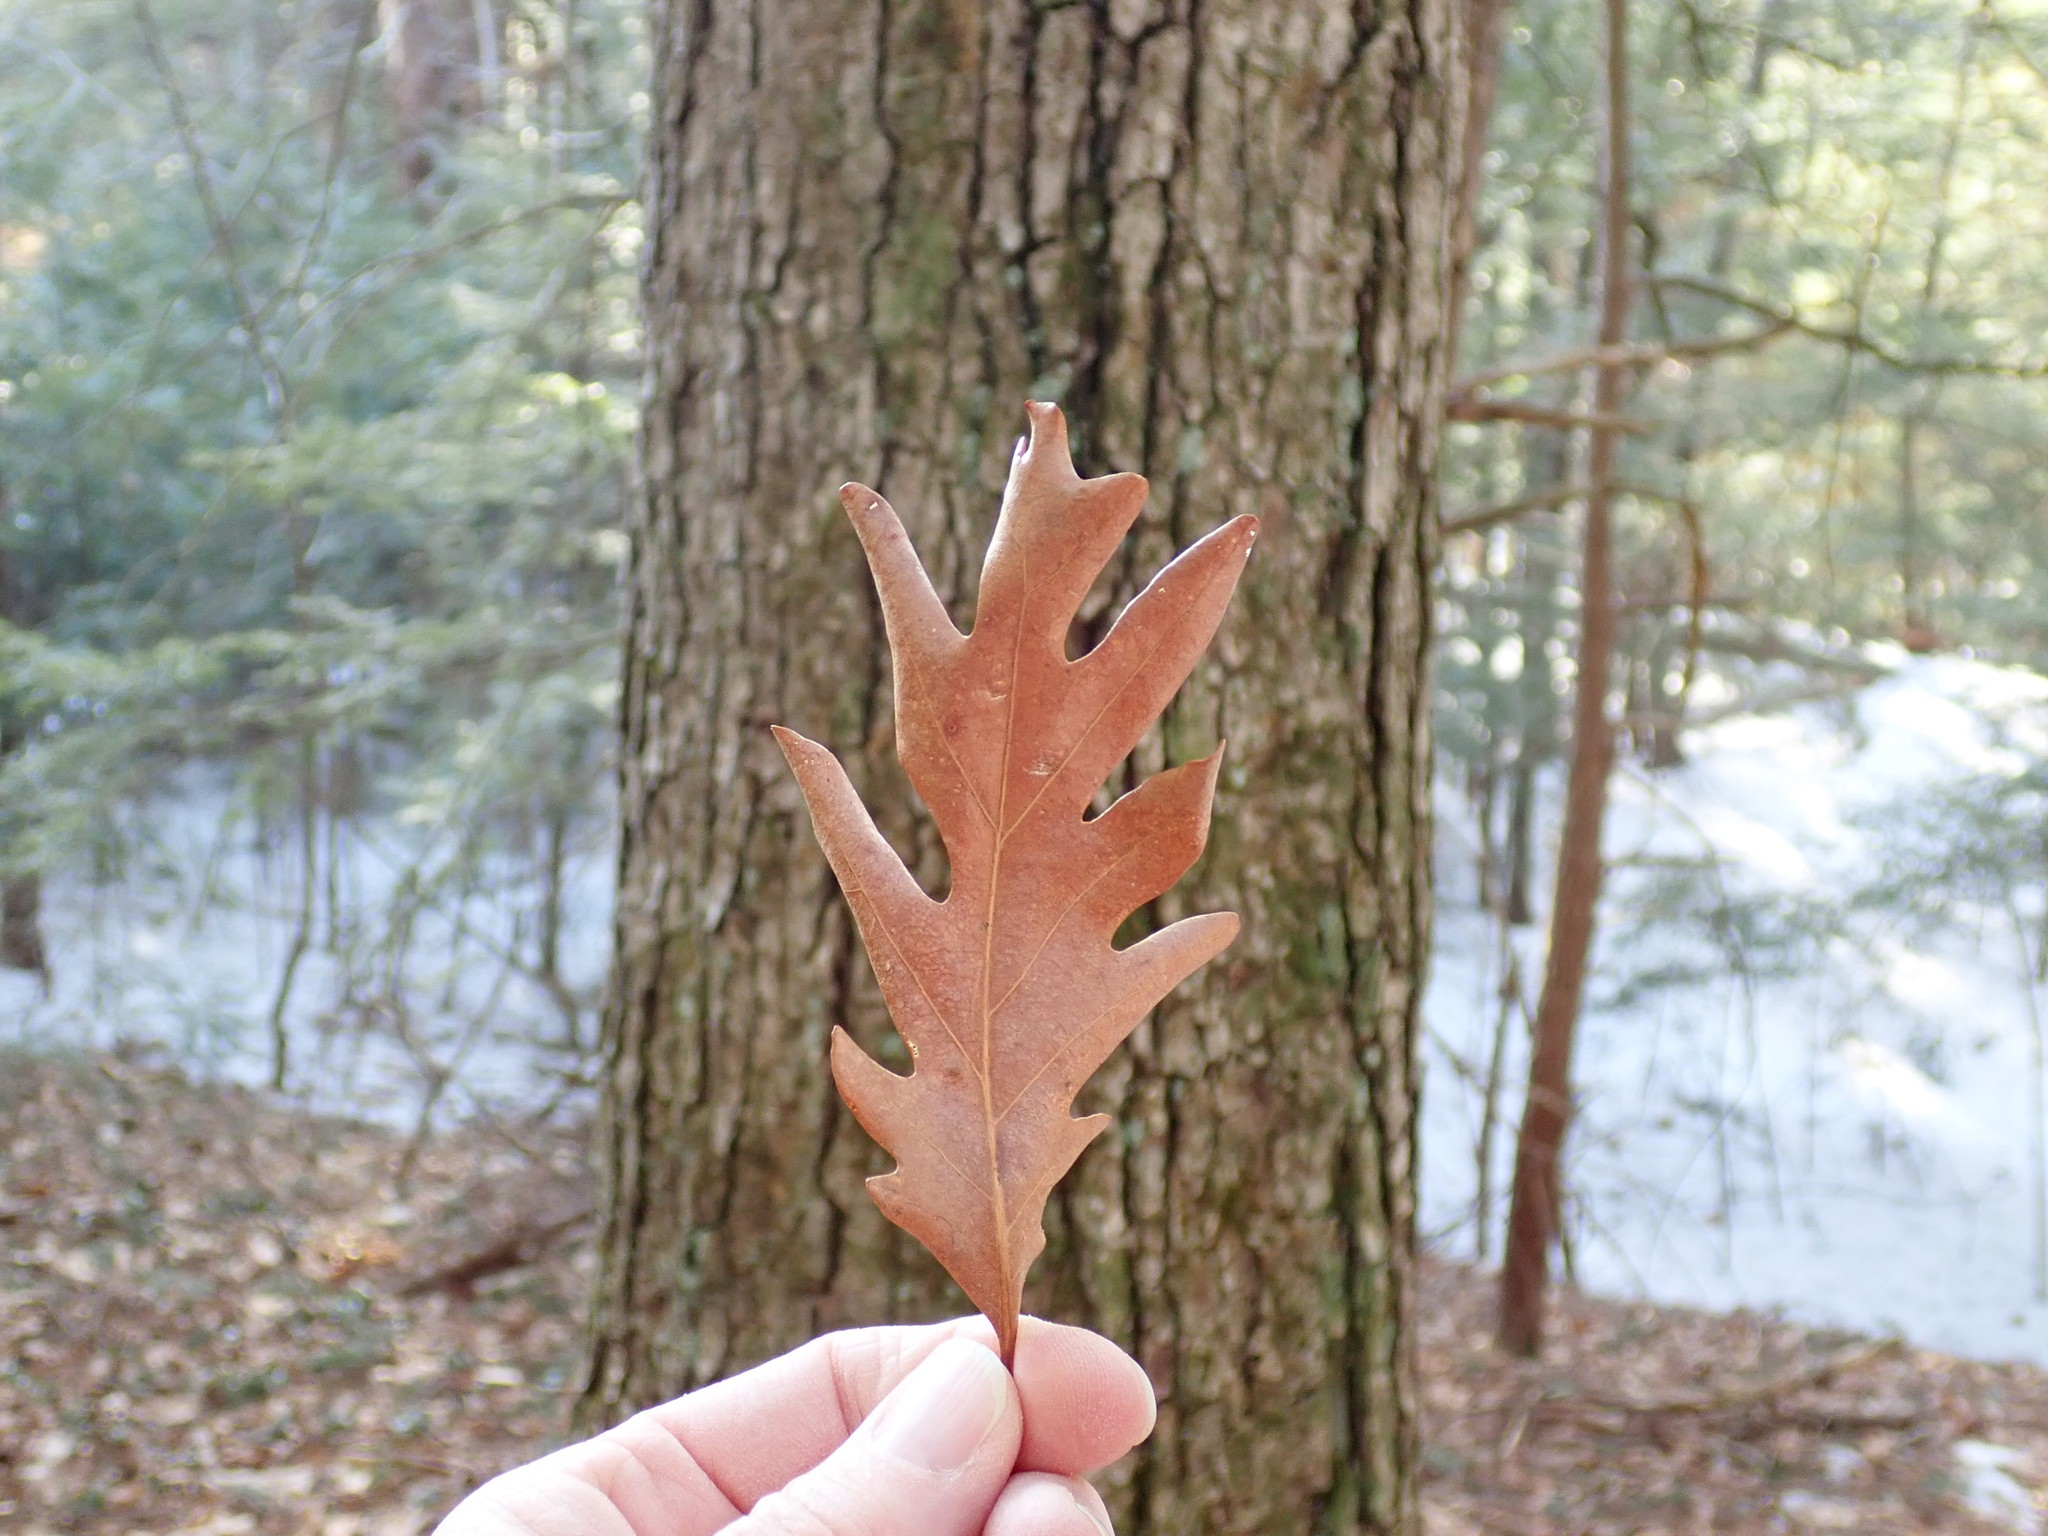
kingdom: Plantae
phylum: Tracheophyta
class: Magnoliopsida
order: Fagales
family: Fagaceae
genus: Quercus
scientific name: Quercus alba
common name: White oak
